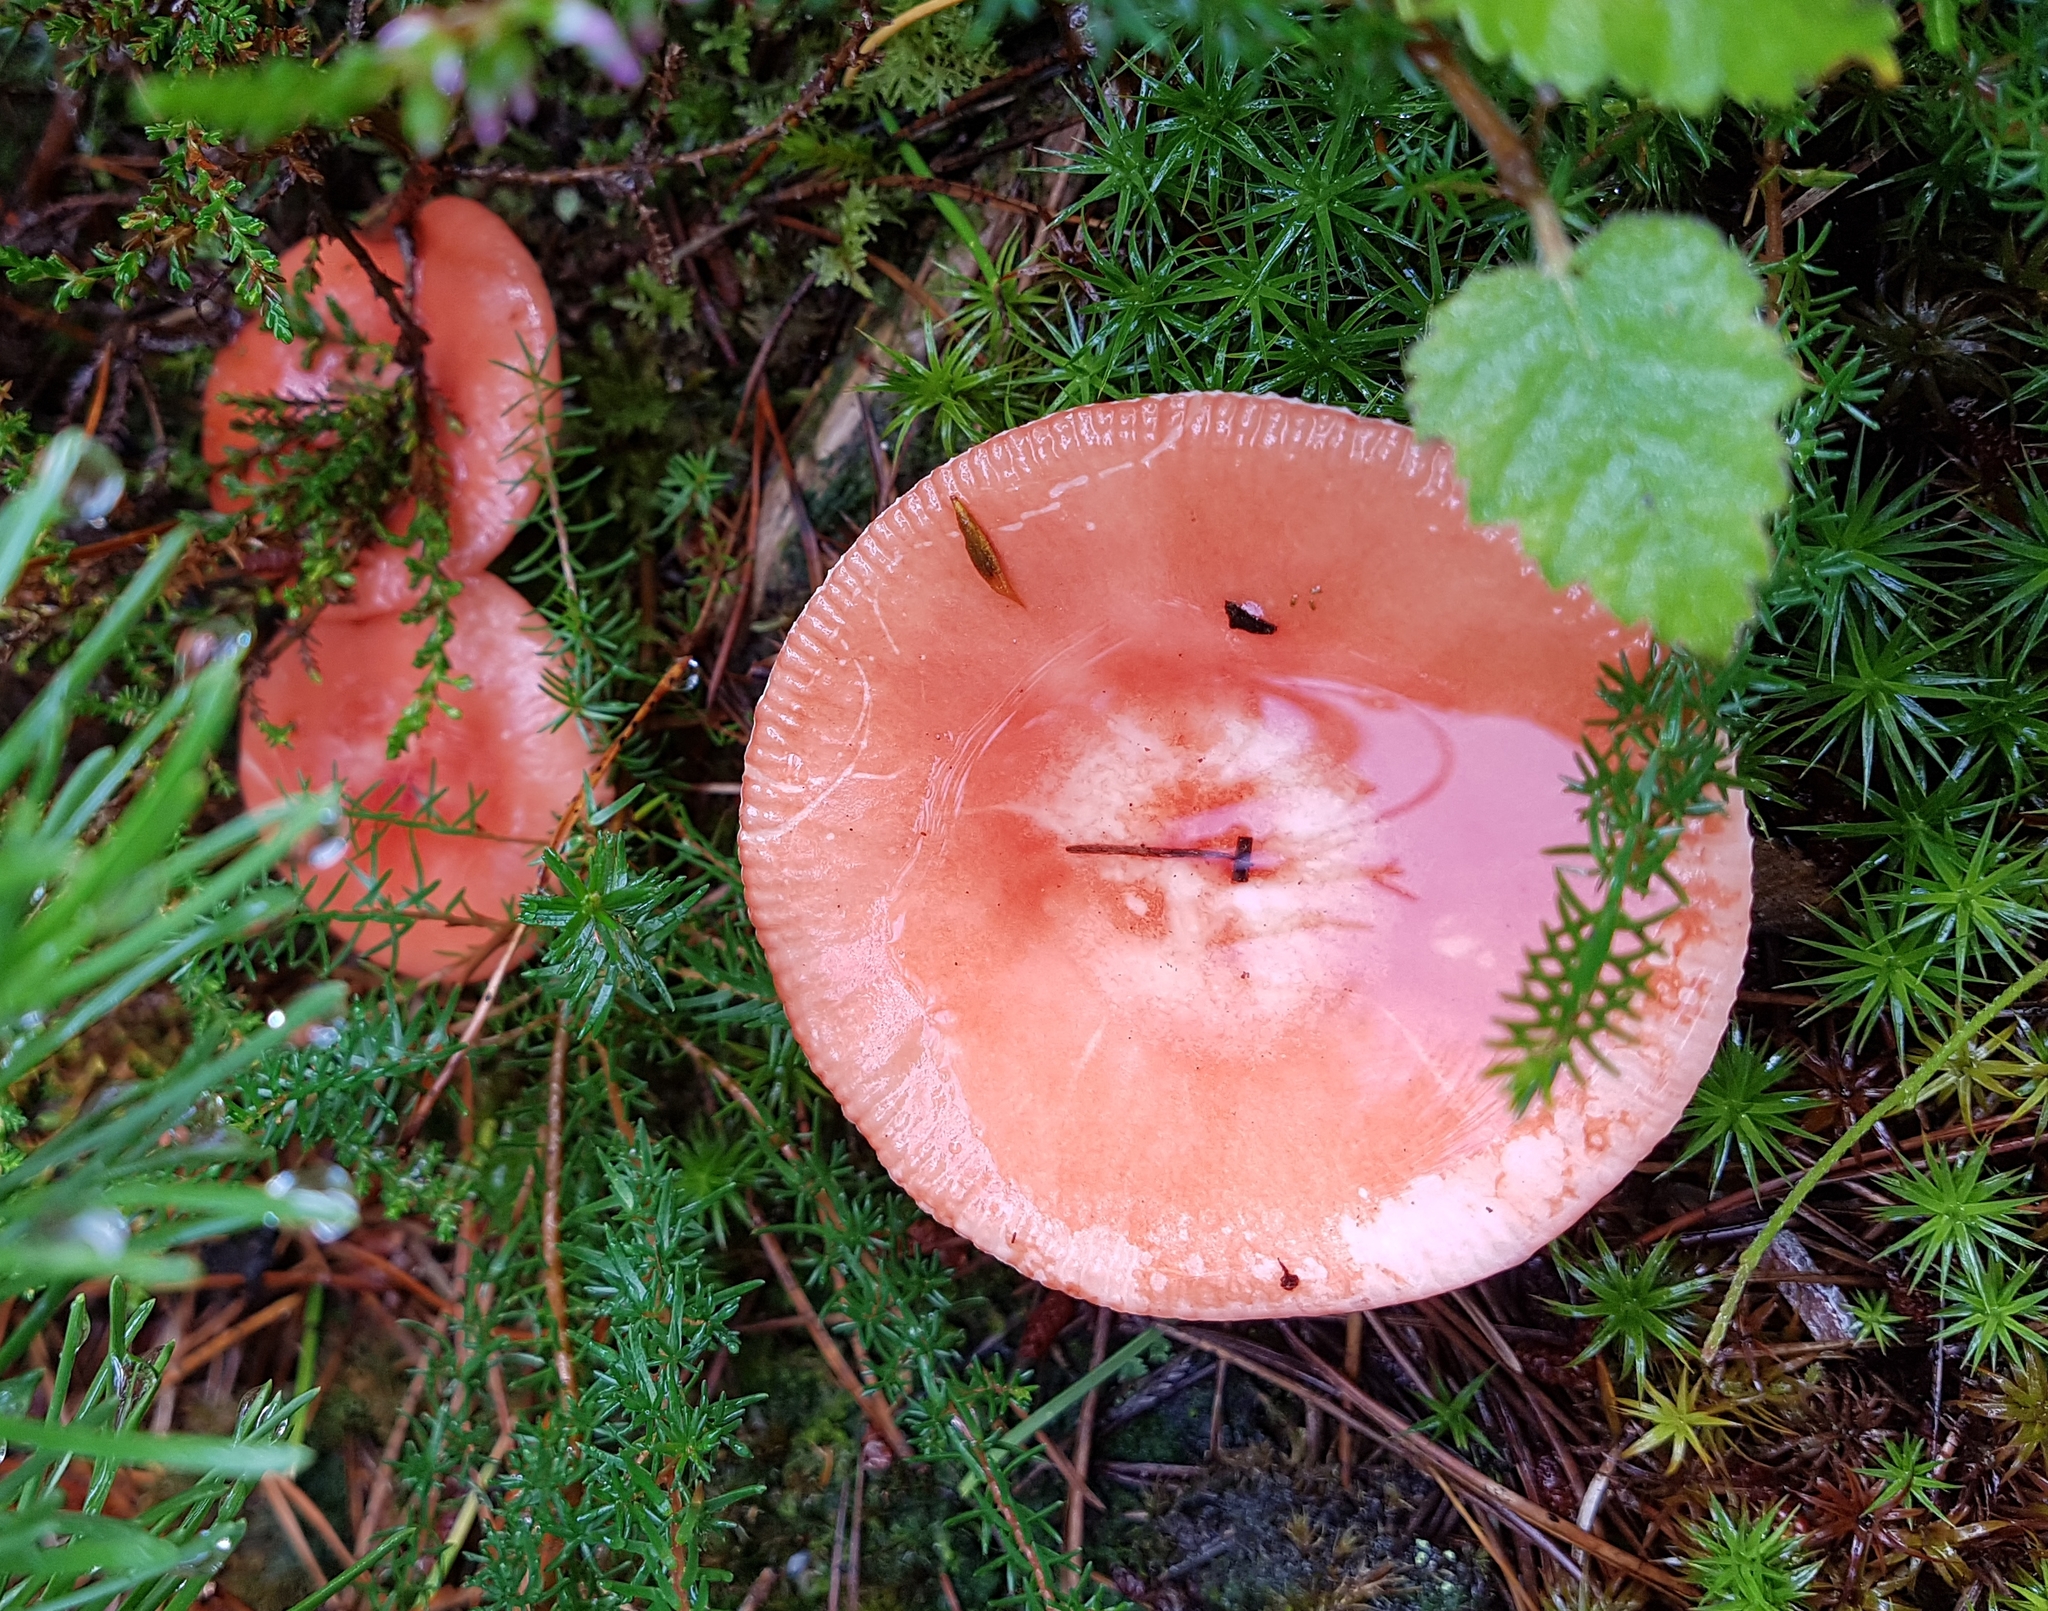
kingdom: Fungi
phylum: Basidiomycota
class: Agaricomycetes
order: Russulales
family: Russulaceae
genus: Russula
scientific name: Russula sanguinea
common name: Bloody brittlegill
